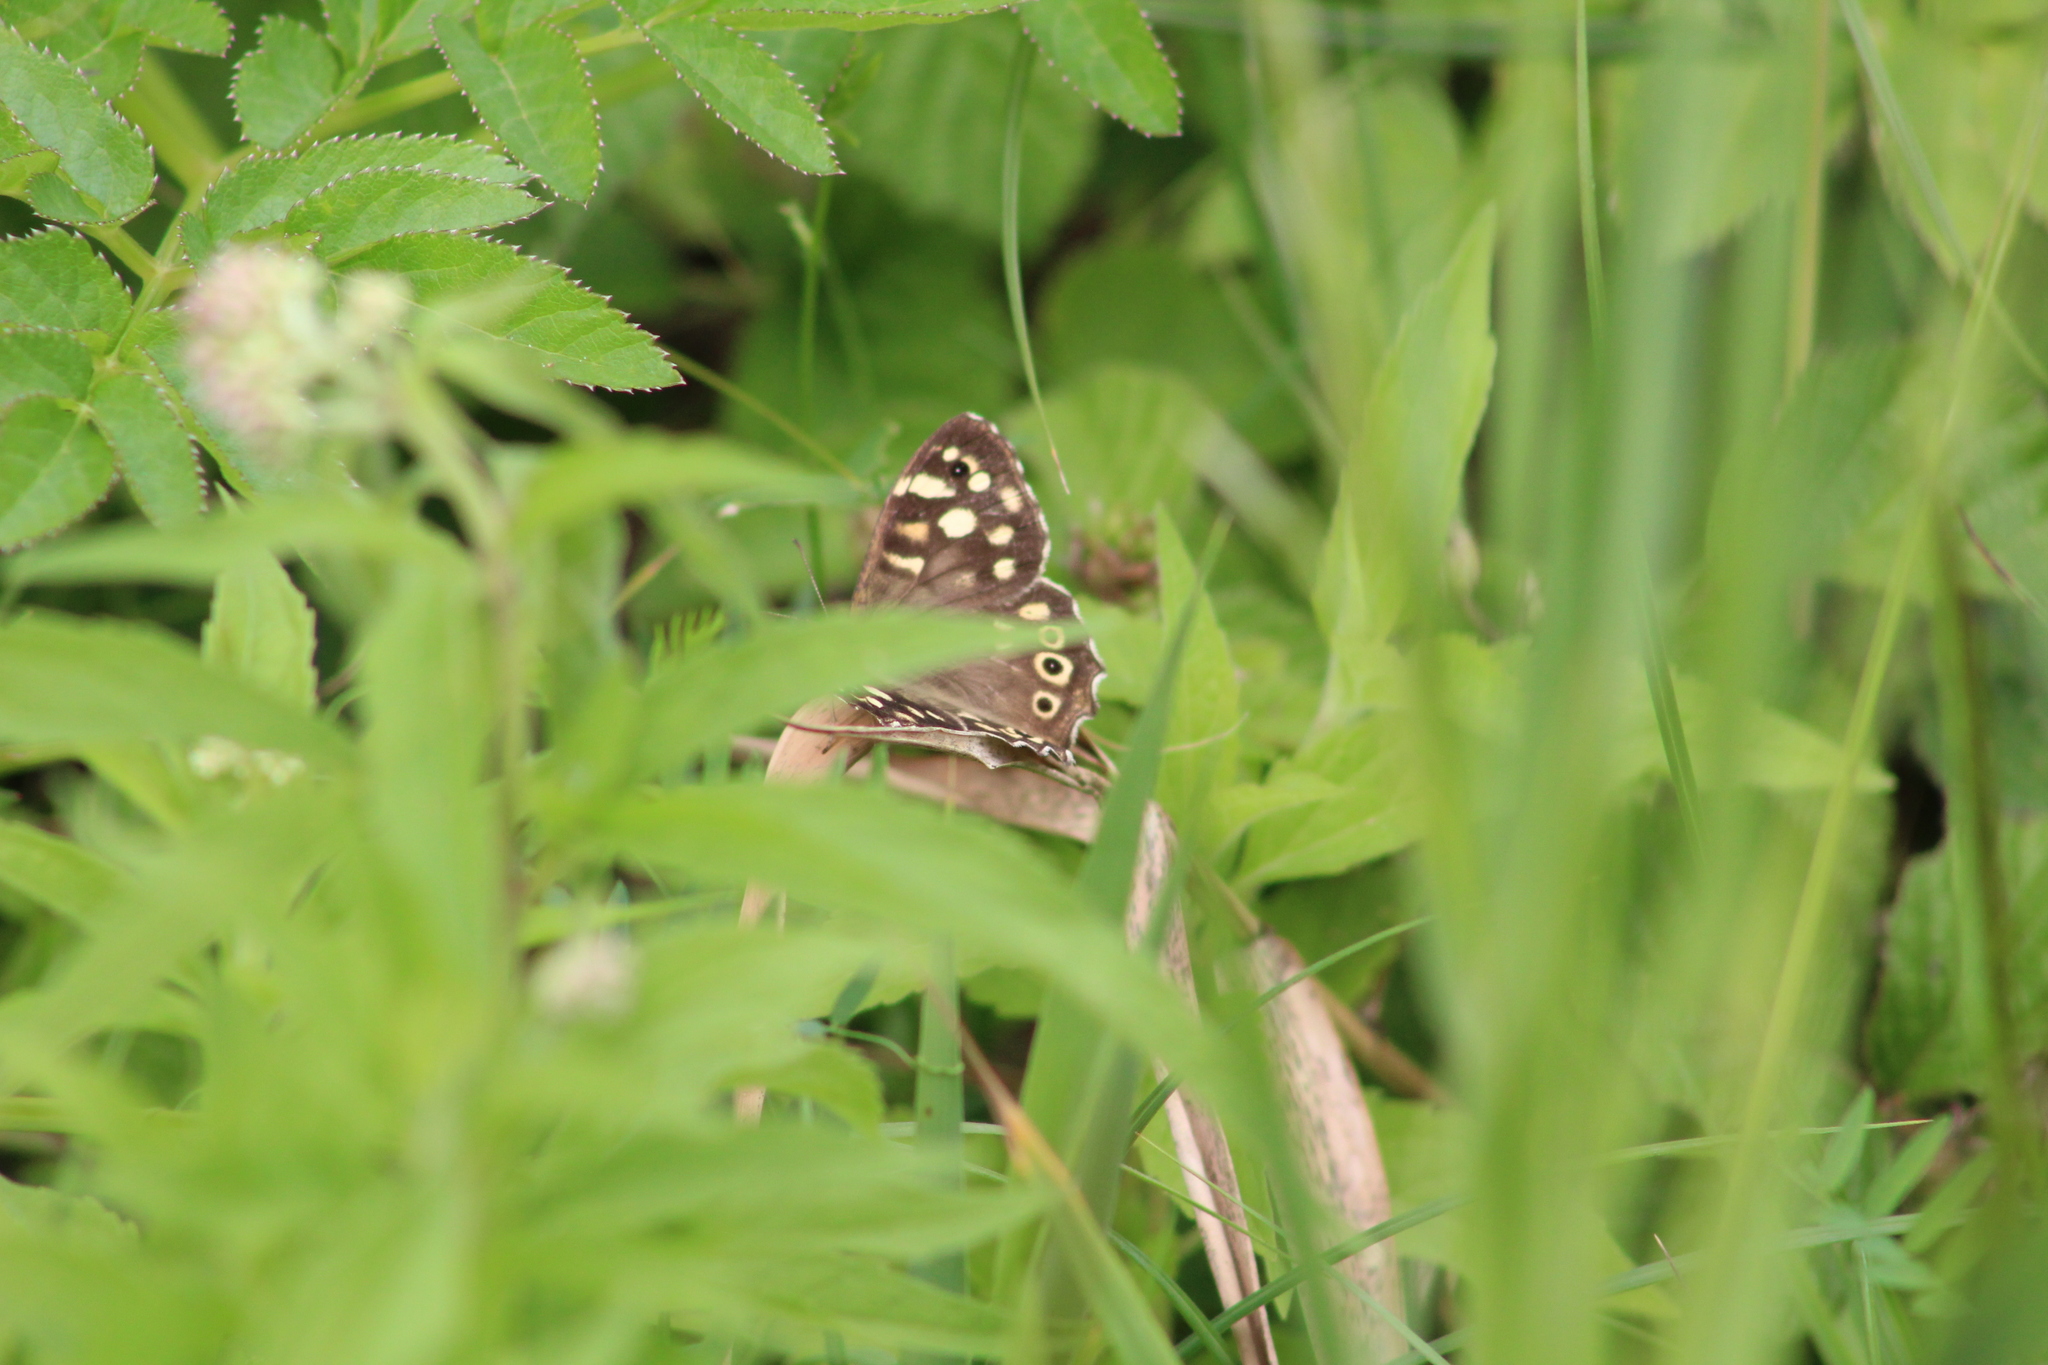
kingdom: Animalia
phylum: Arthropoda
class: Insecta
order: Lepidoptera
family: Nymphalidae
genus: Pararge
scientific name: Pararge aegeria
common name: Speckled wood
